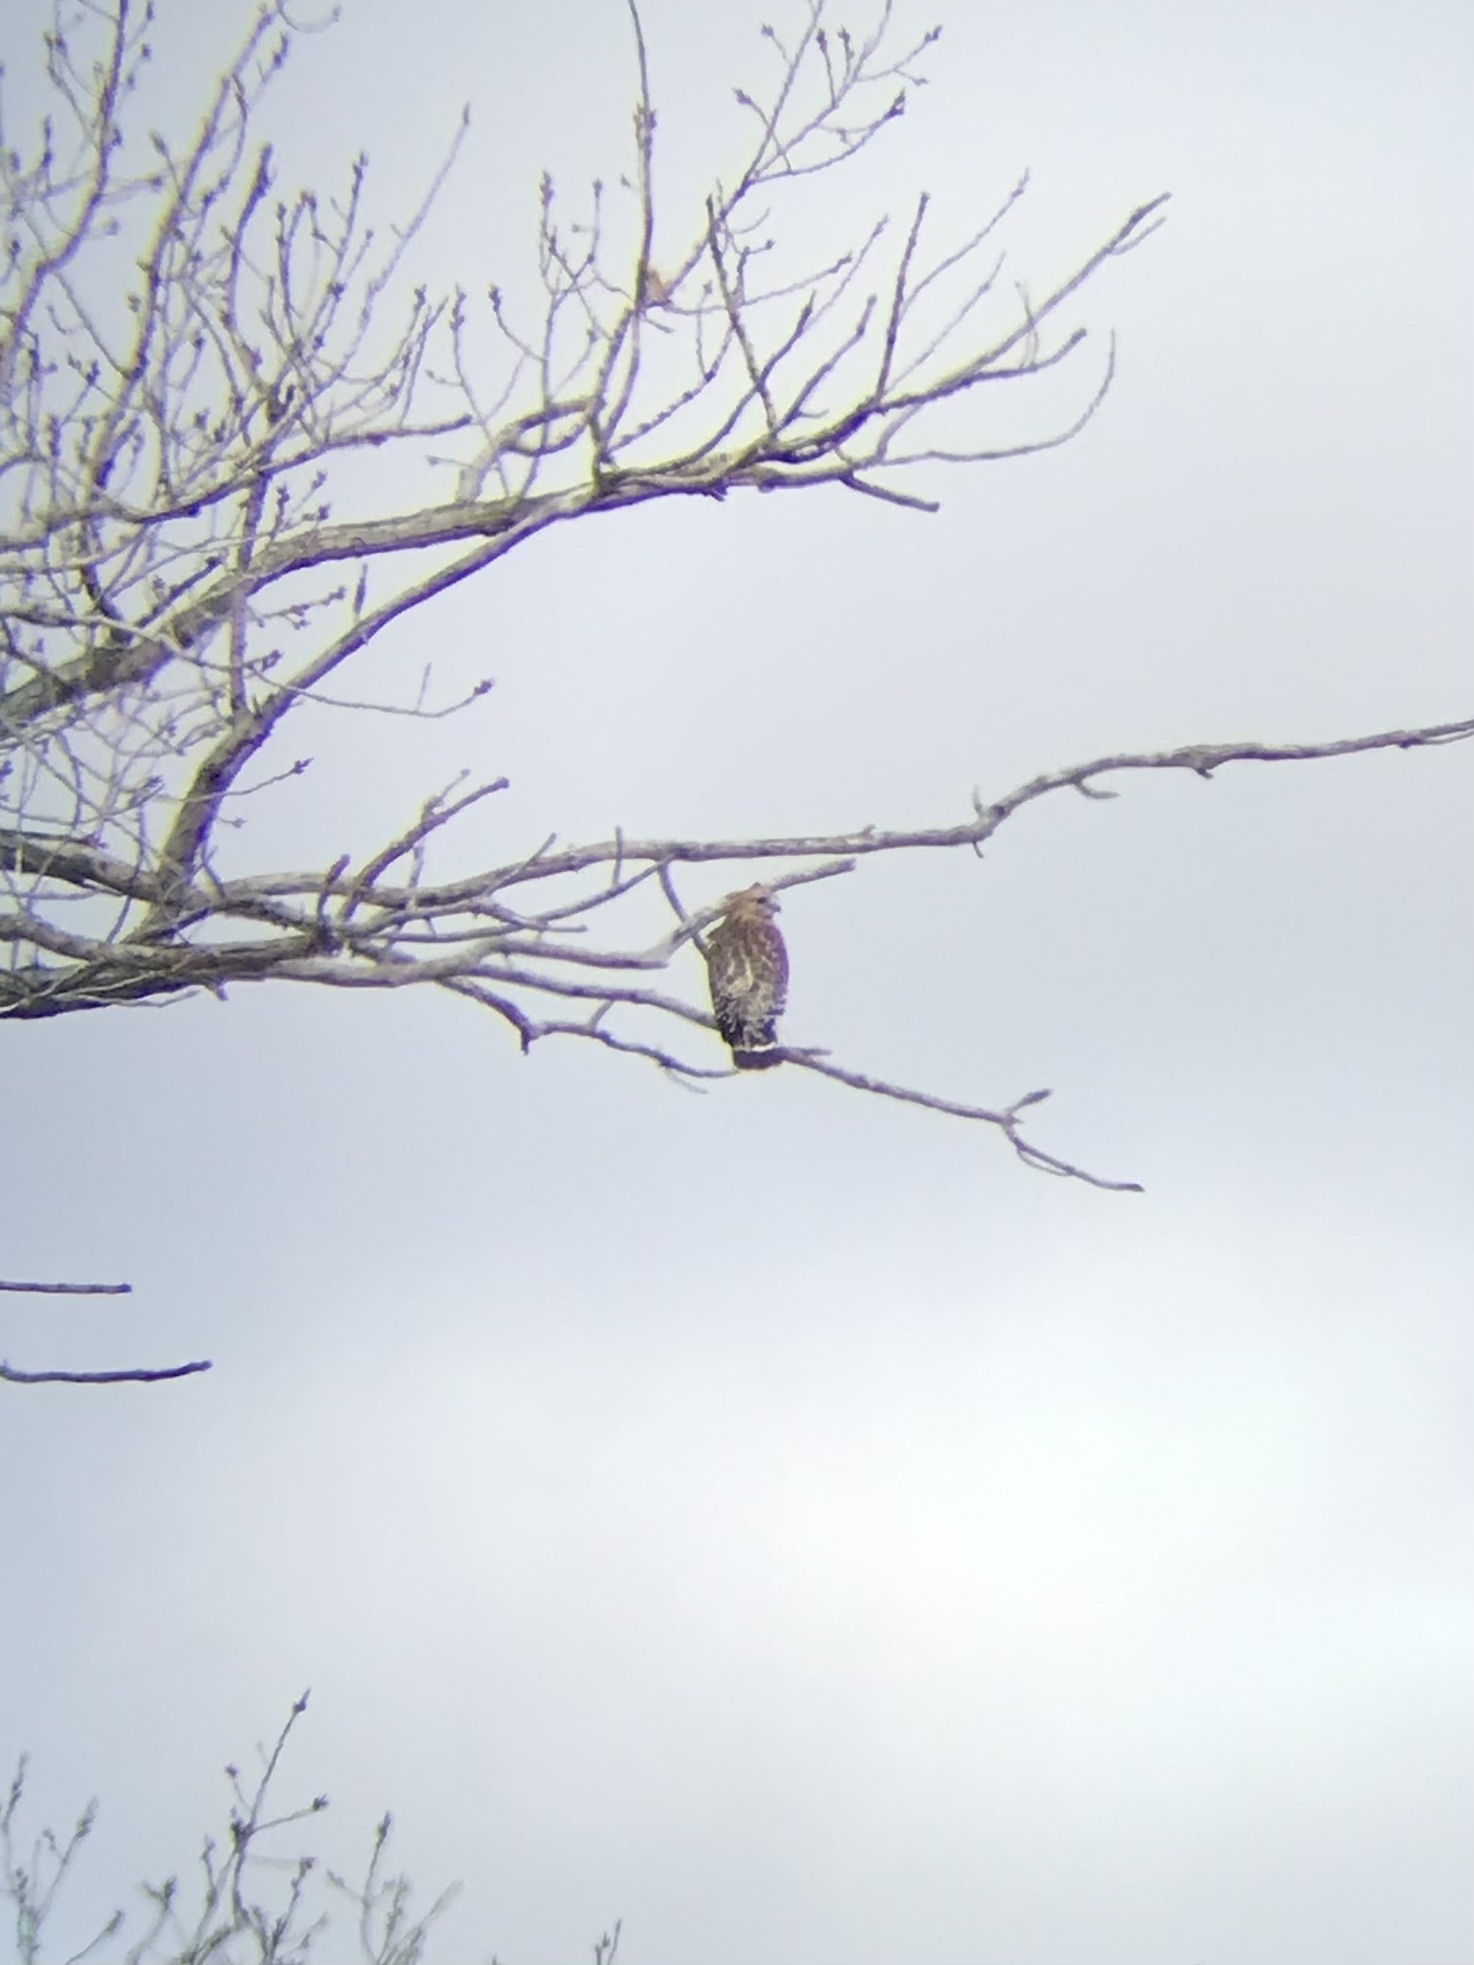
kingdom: Animalia
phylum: Chordata
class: Aves
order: Accipitriformes
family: Accipitridae
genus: Buteo
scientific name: Buteo lineatus
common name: Red-shouldered hawk
